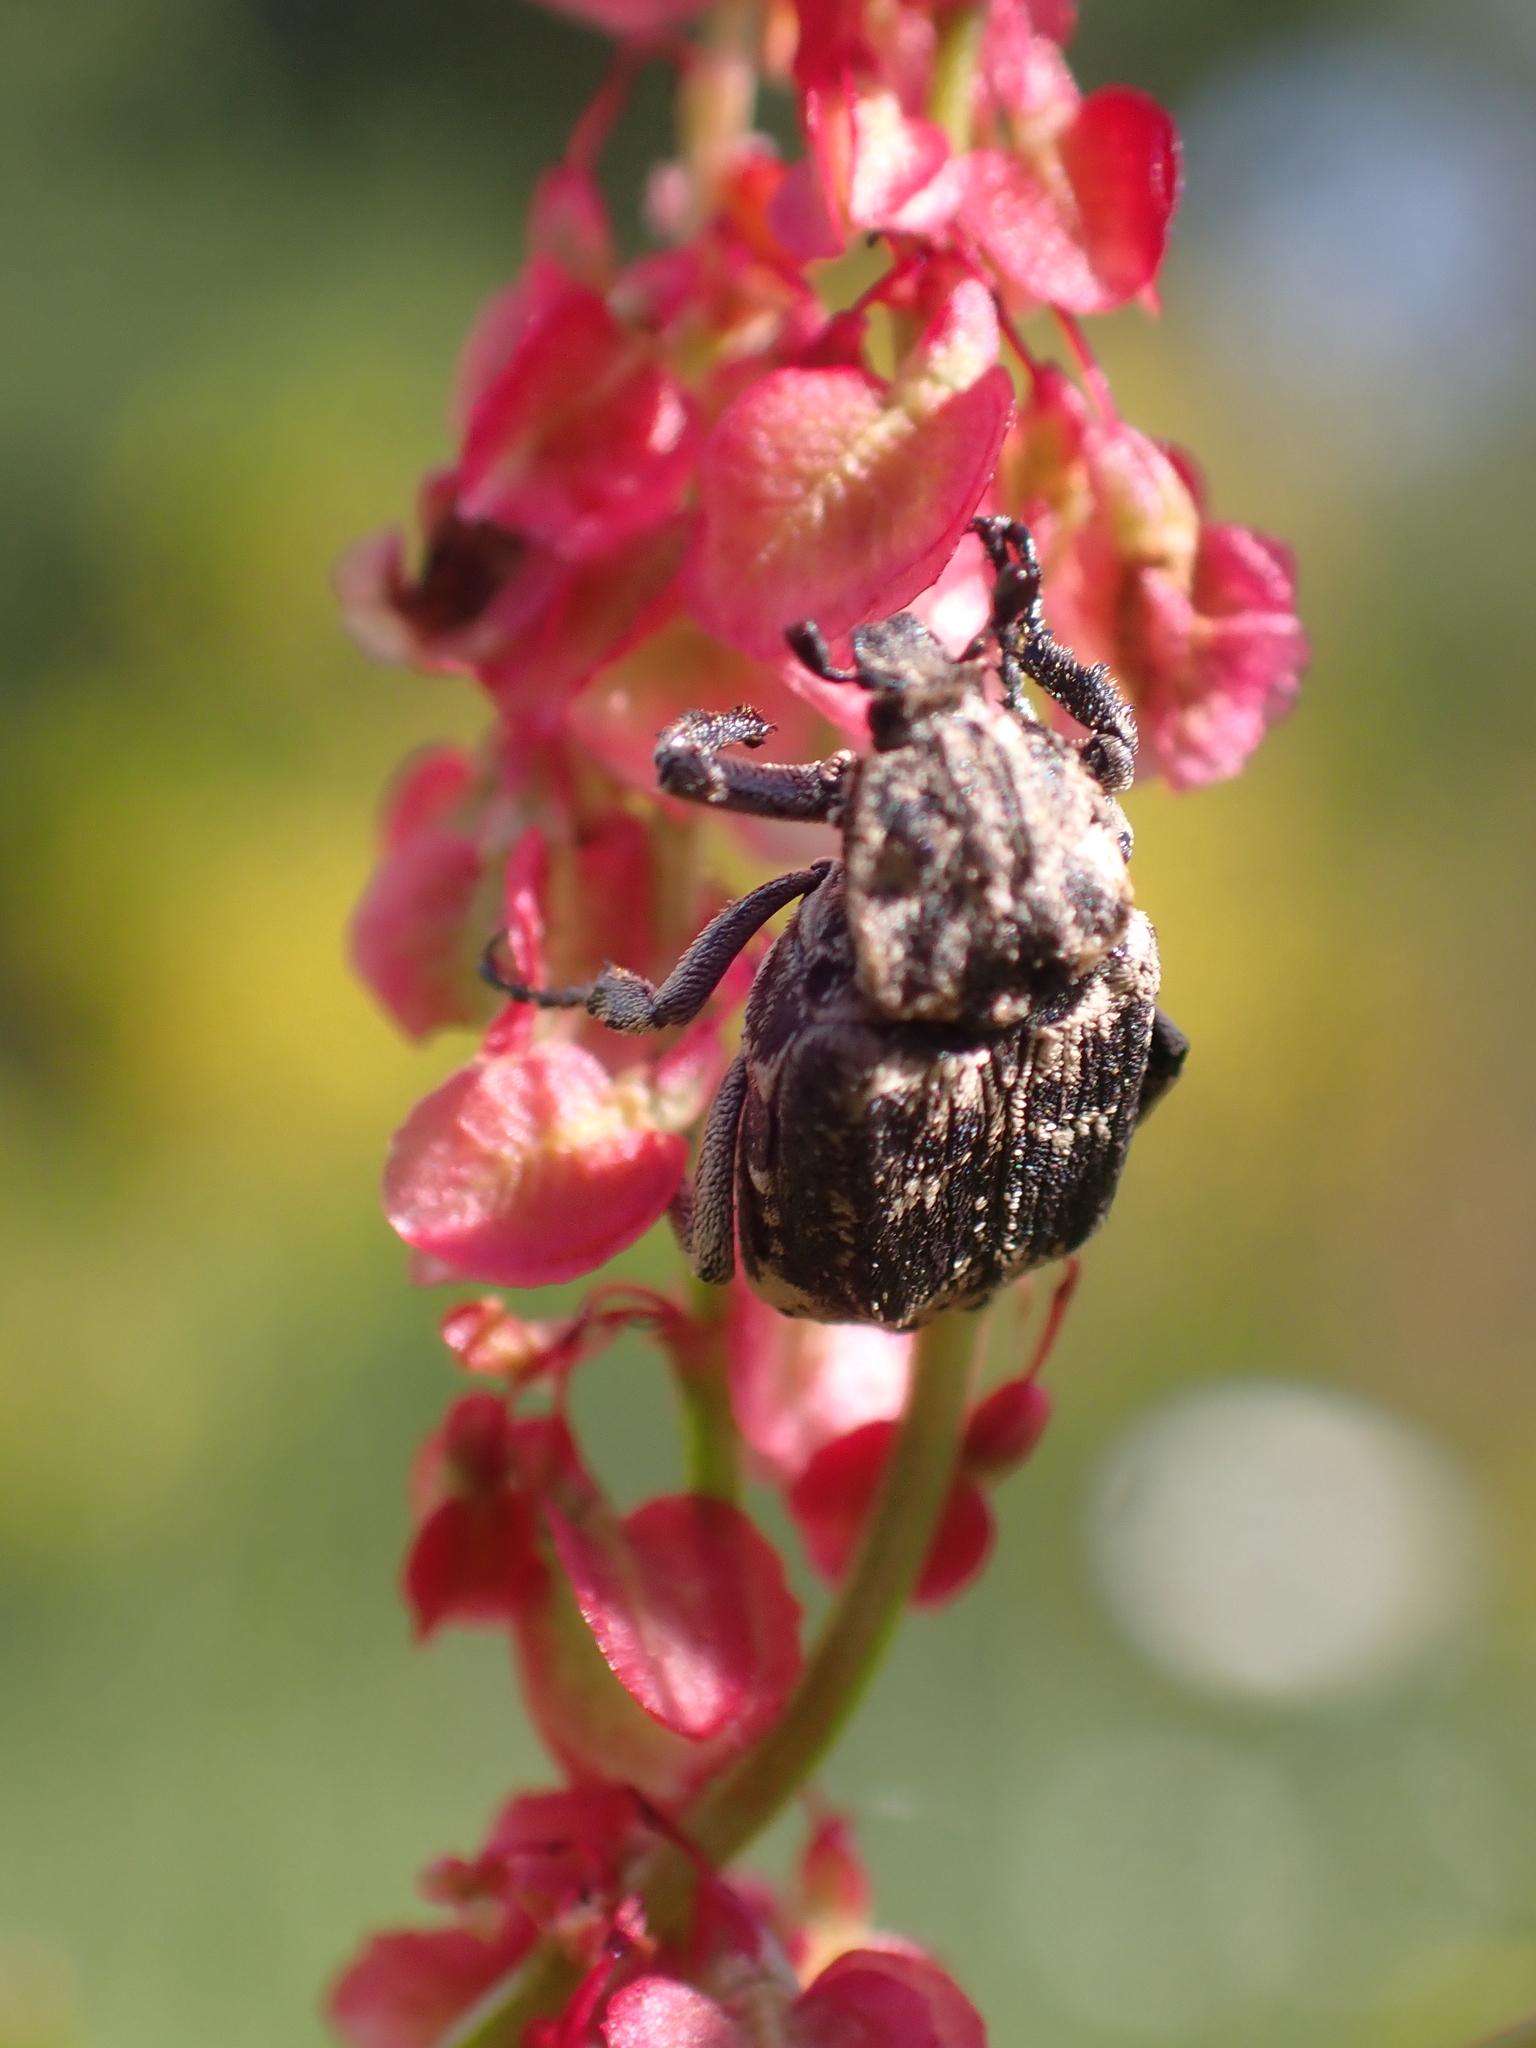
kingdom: Animalia
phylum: Arthropoda
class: Insecta
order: Coleoptera
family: Scarabaeidae
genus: Valgus
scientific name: Valgus hemipterus
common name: Bug flower chafer
